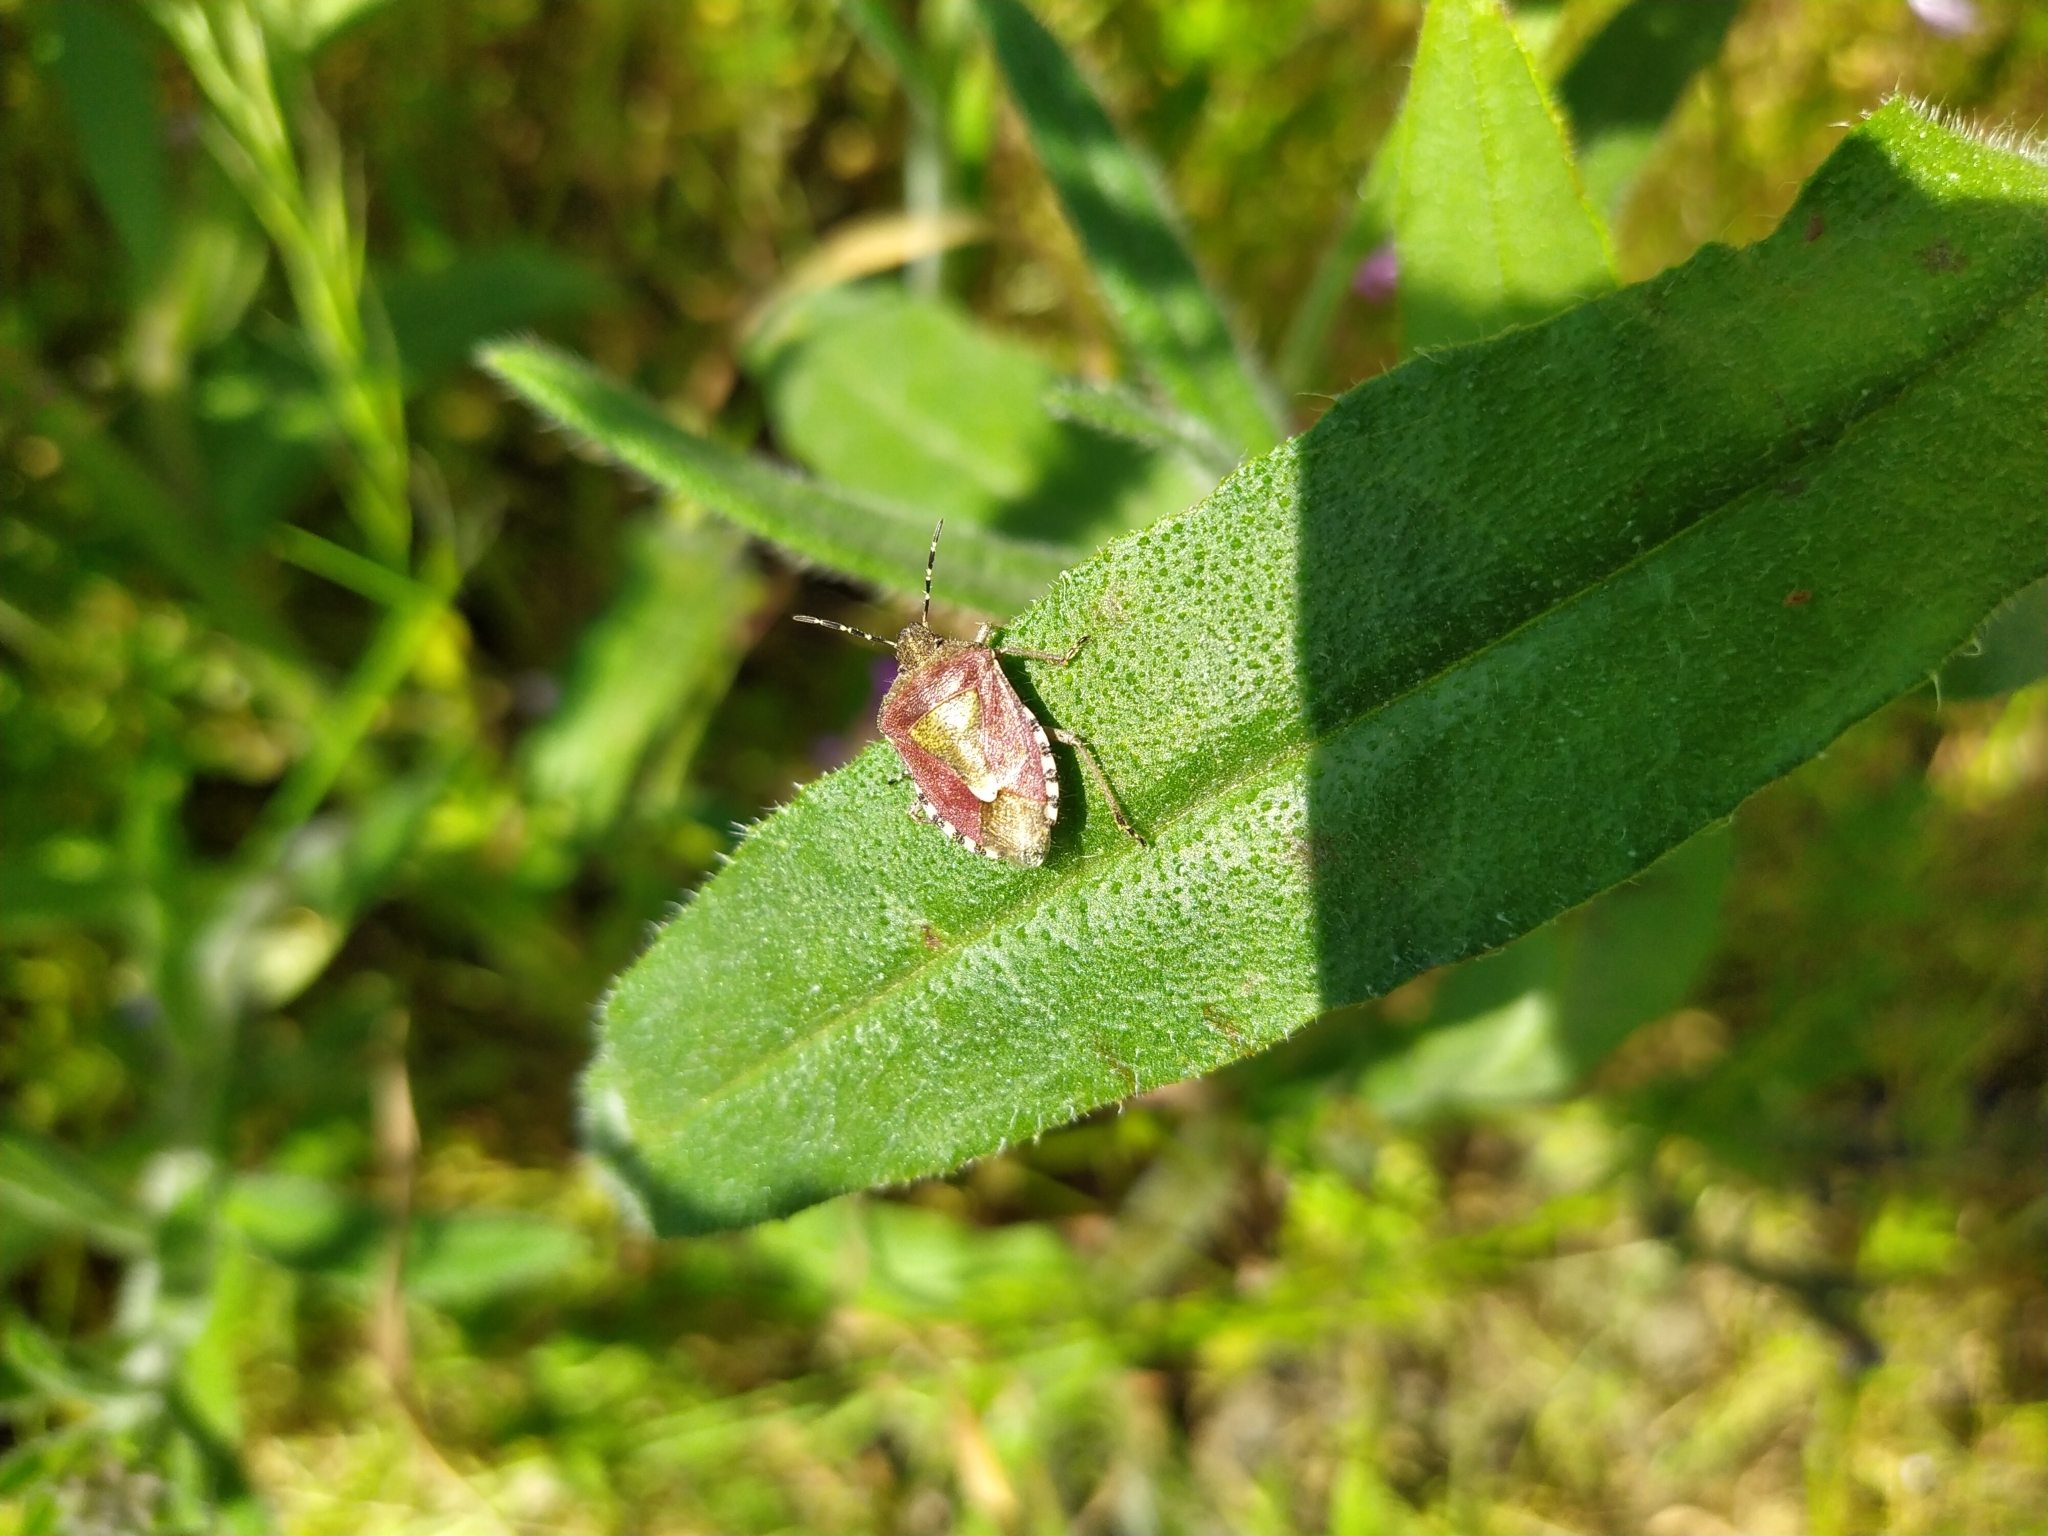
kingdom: Animalia
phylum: Arthropoda
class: Insecta
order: Hemiptera
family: Pentatomidae
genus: Dolycoris
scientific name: Dolycoris baccarum
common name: Sloe bug
